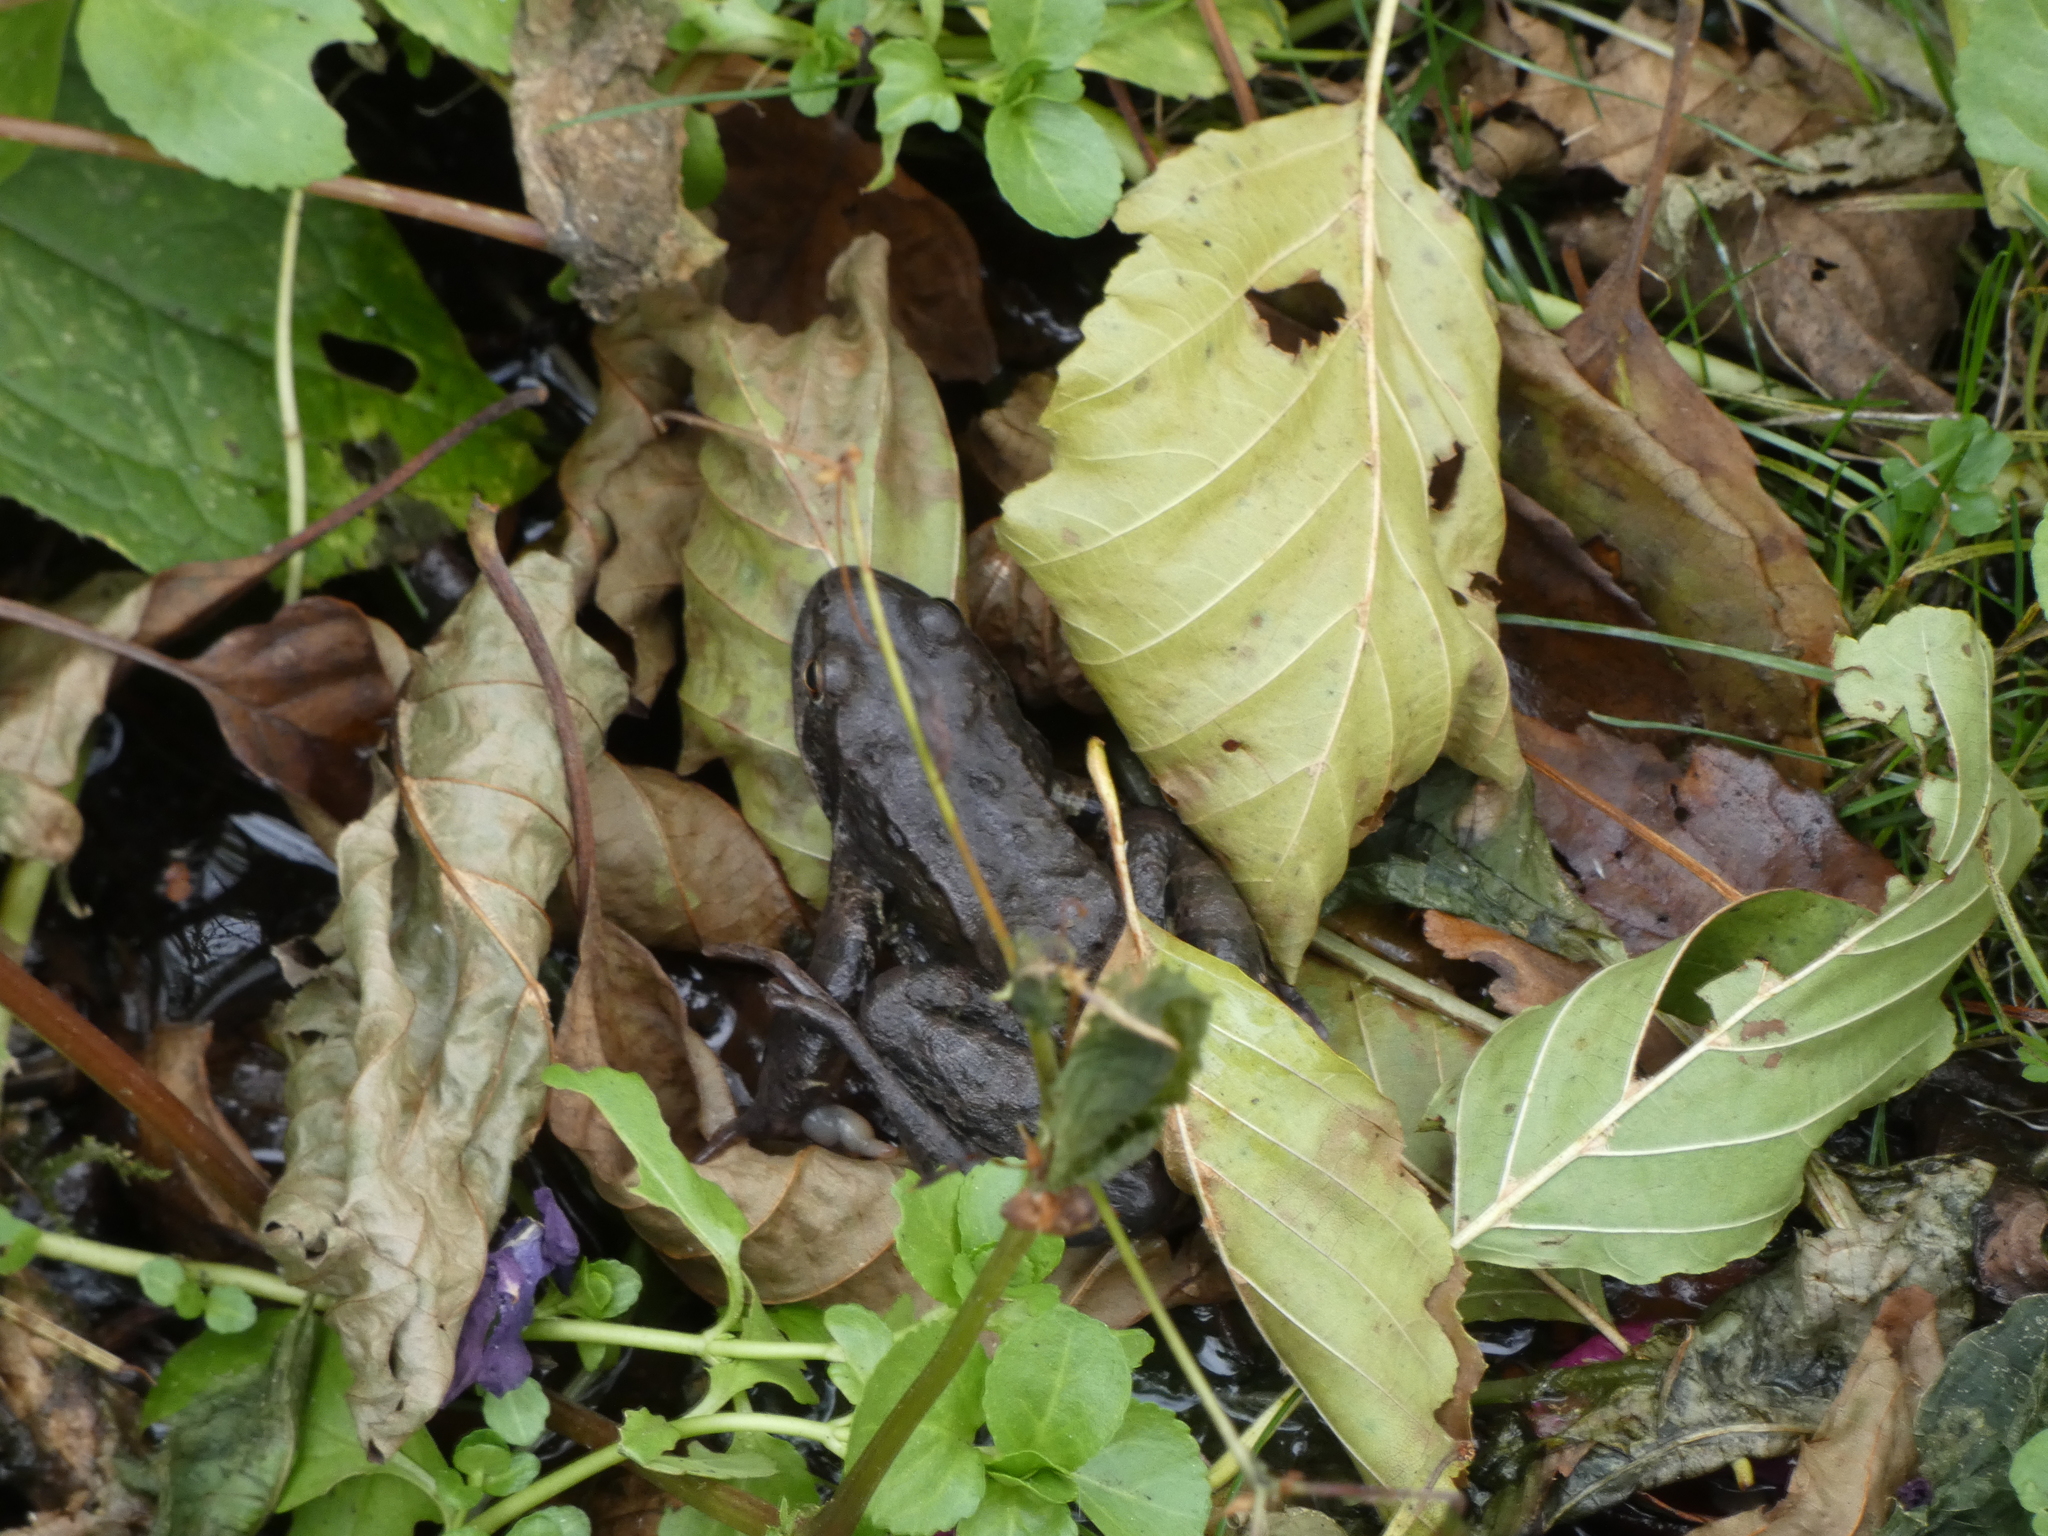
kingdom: Animalia
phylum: Chordata
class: Amphibia
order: Anura
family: Ranidae
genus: Rana
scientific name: Rana temporaria
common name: Common frog
